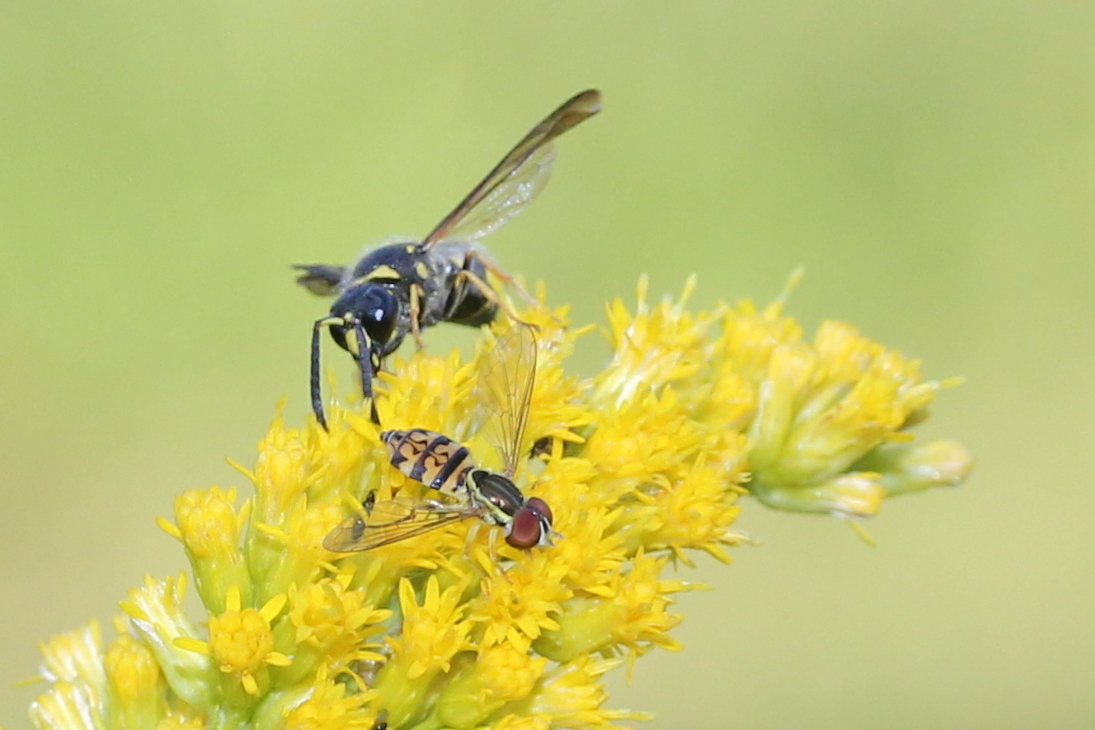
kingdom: Animalia
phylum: Arthropoda
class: Insecta
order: Diptera
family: Syrphidae
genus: Toxomerus
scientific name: Toxomerus geminatus
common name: Eastern calligrapher
